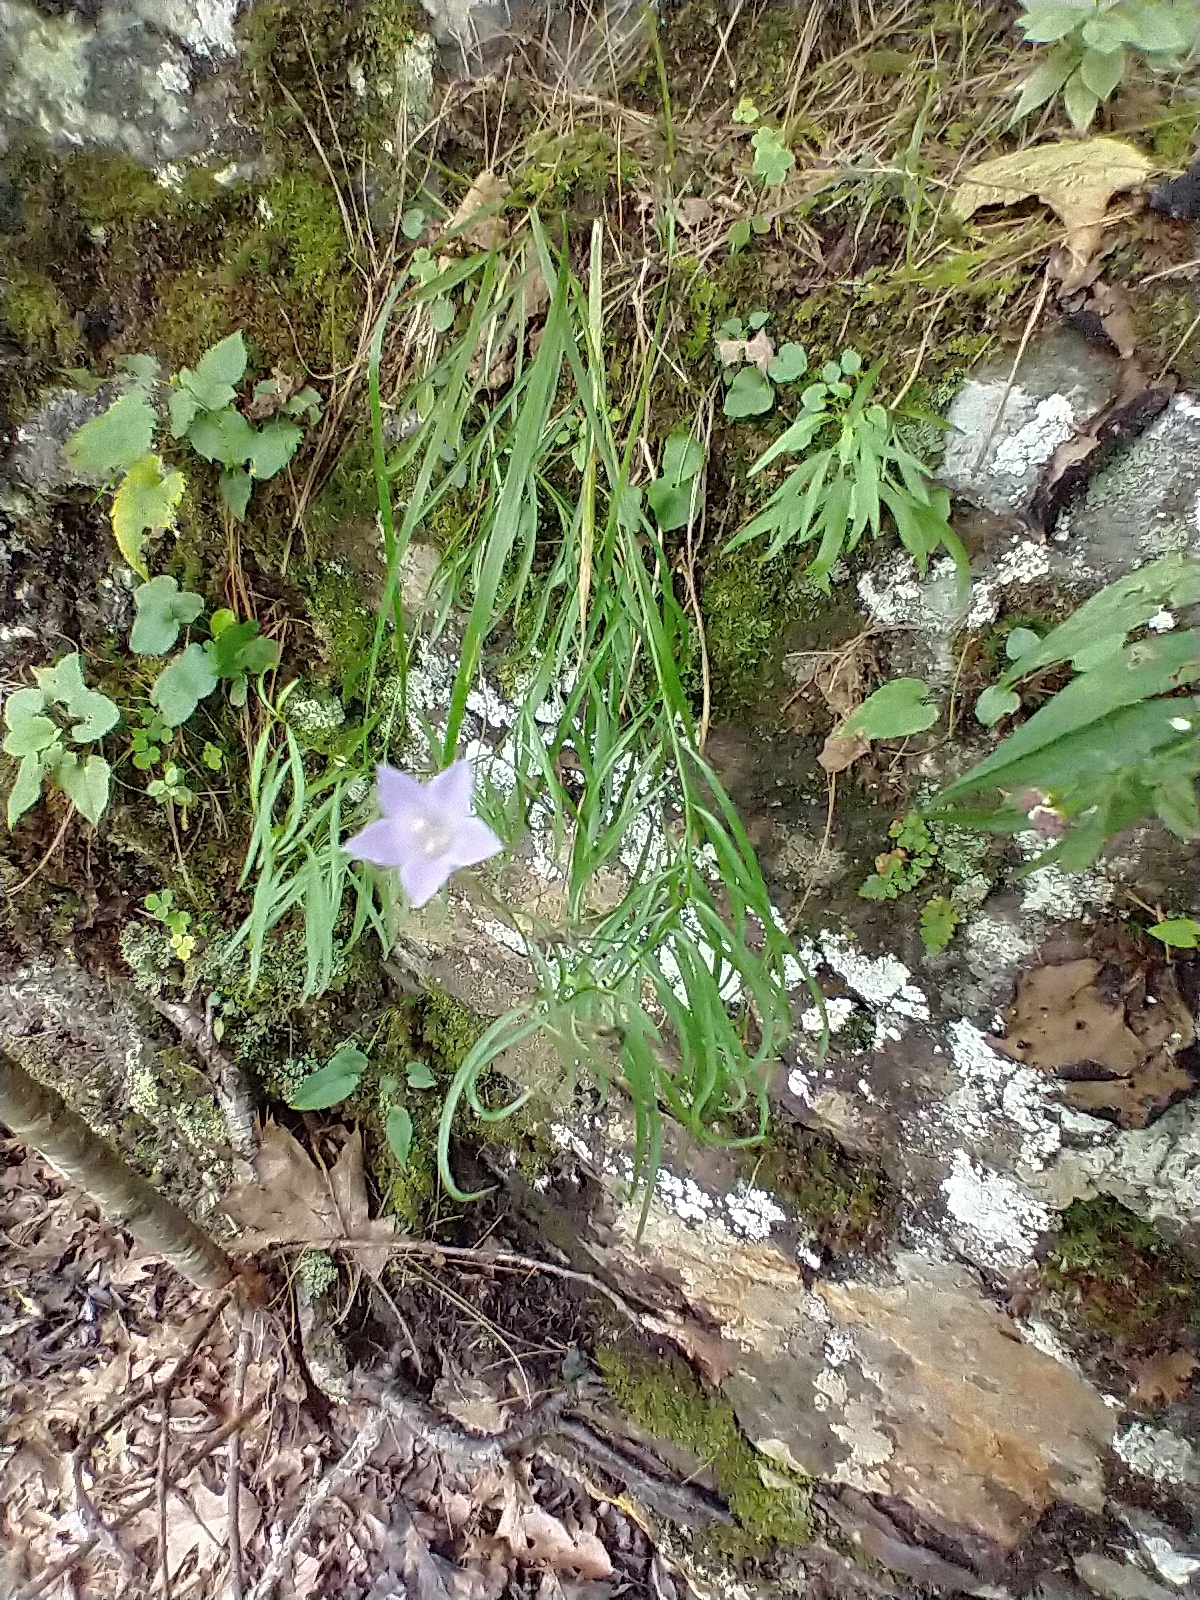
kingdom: Plantae
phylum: Tracheophyta
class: Magnoliopsida
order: Asterales
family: Campanulaceae
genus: Campanula
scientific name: Campanula intercedens
